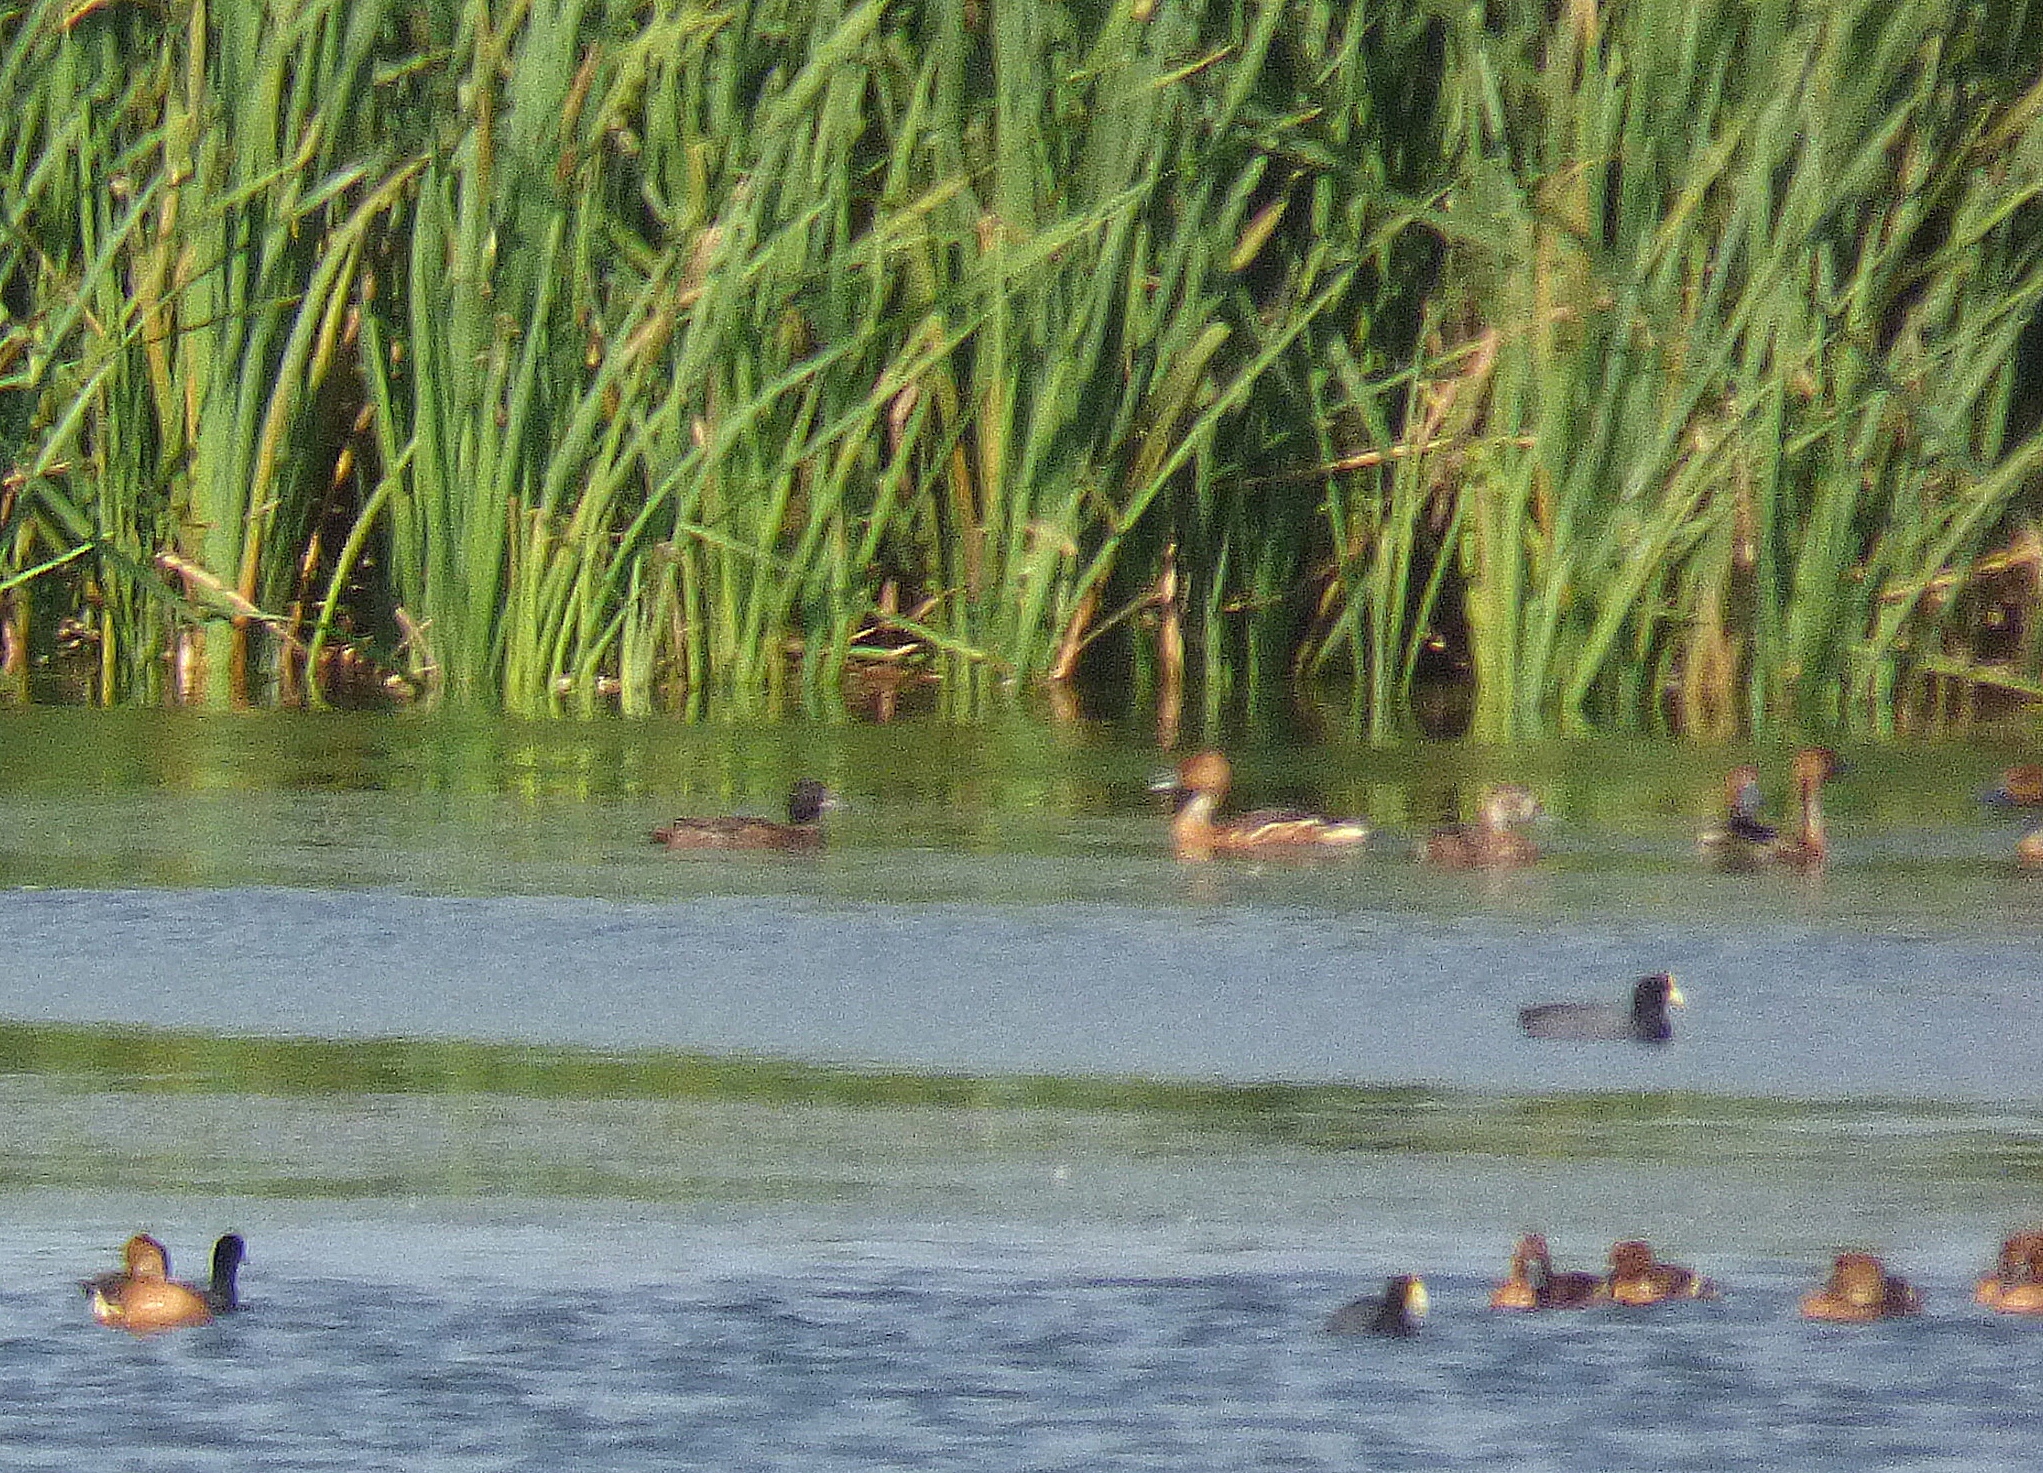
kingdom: Animalia
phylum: Chordata
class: Aves
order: Anseriformes
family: Anatidae
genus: Heteronetta
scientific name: Heteronetta atricapilla
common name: Black-headed duck
